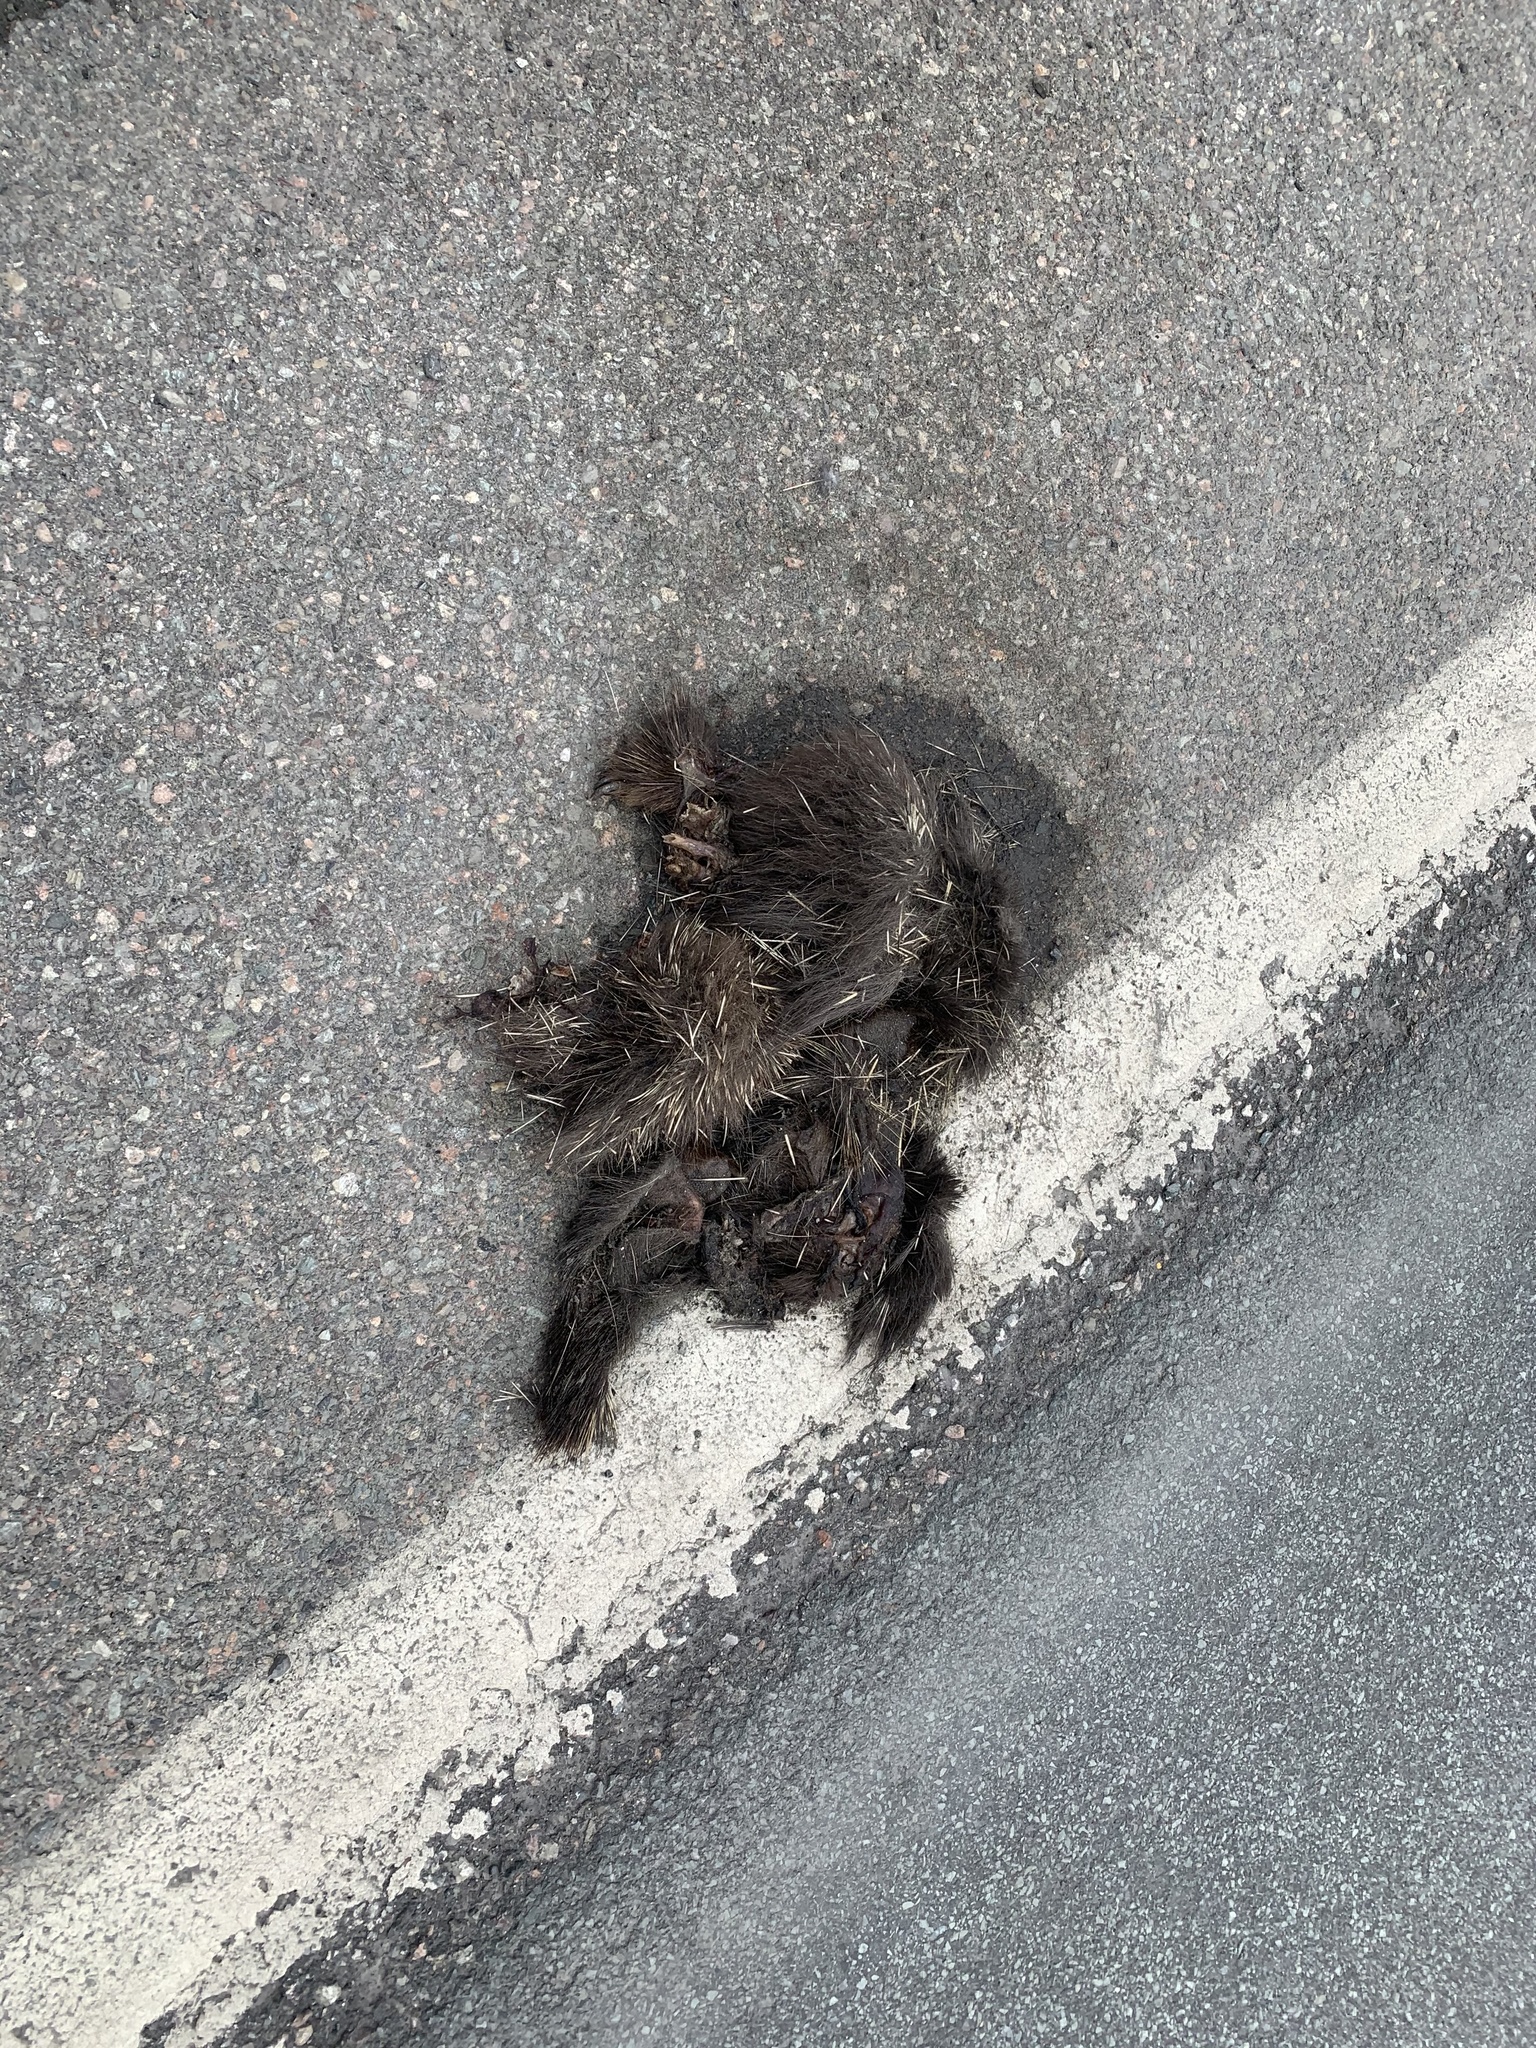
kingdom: Animalia
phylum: Chordata
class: Mammalia
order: Rodentia
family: Erethizontidae
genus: Erethizon
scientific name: Erethizon dorsatus
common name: North american porcupine
